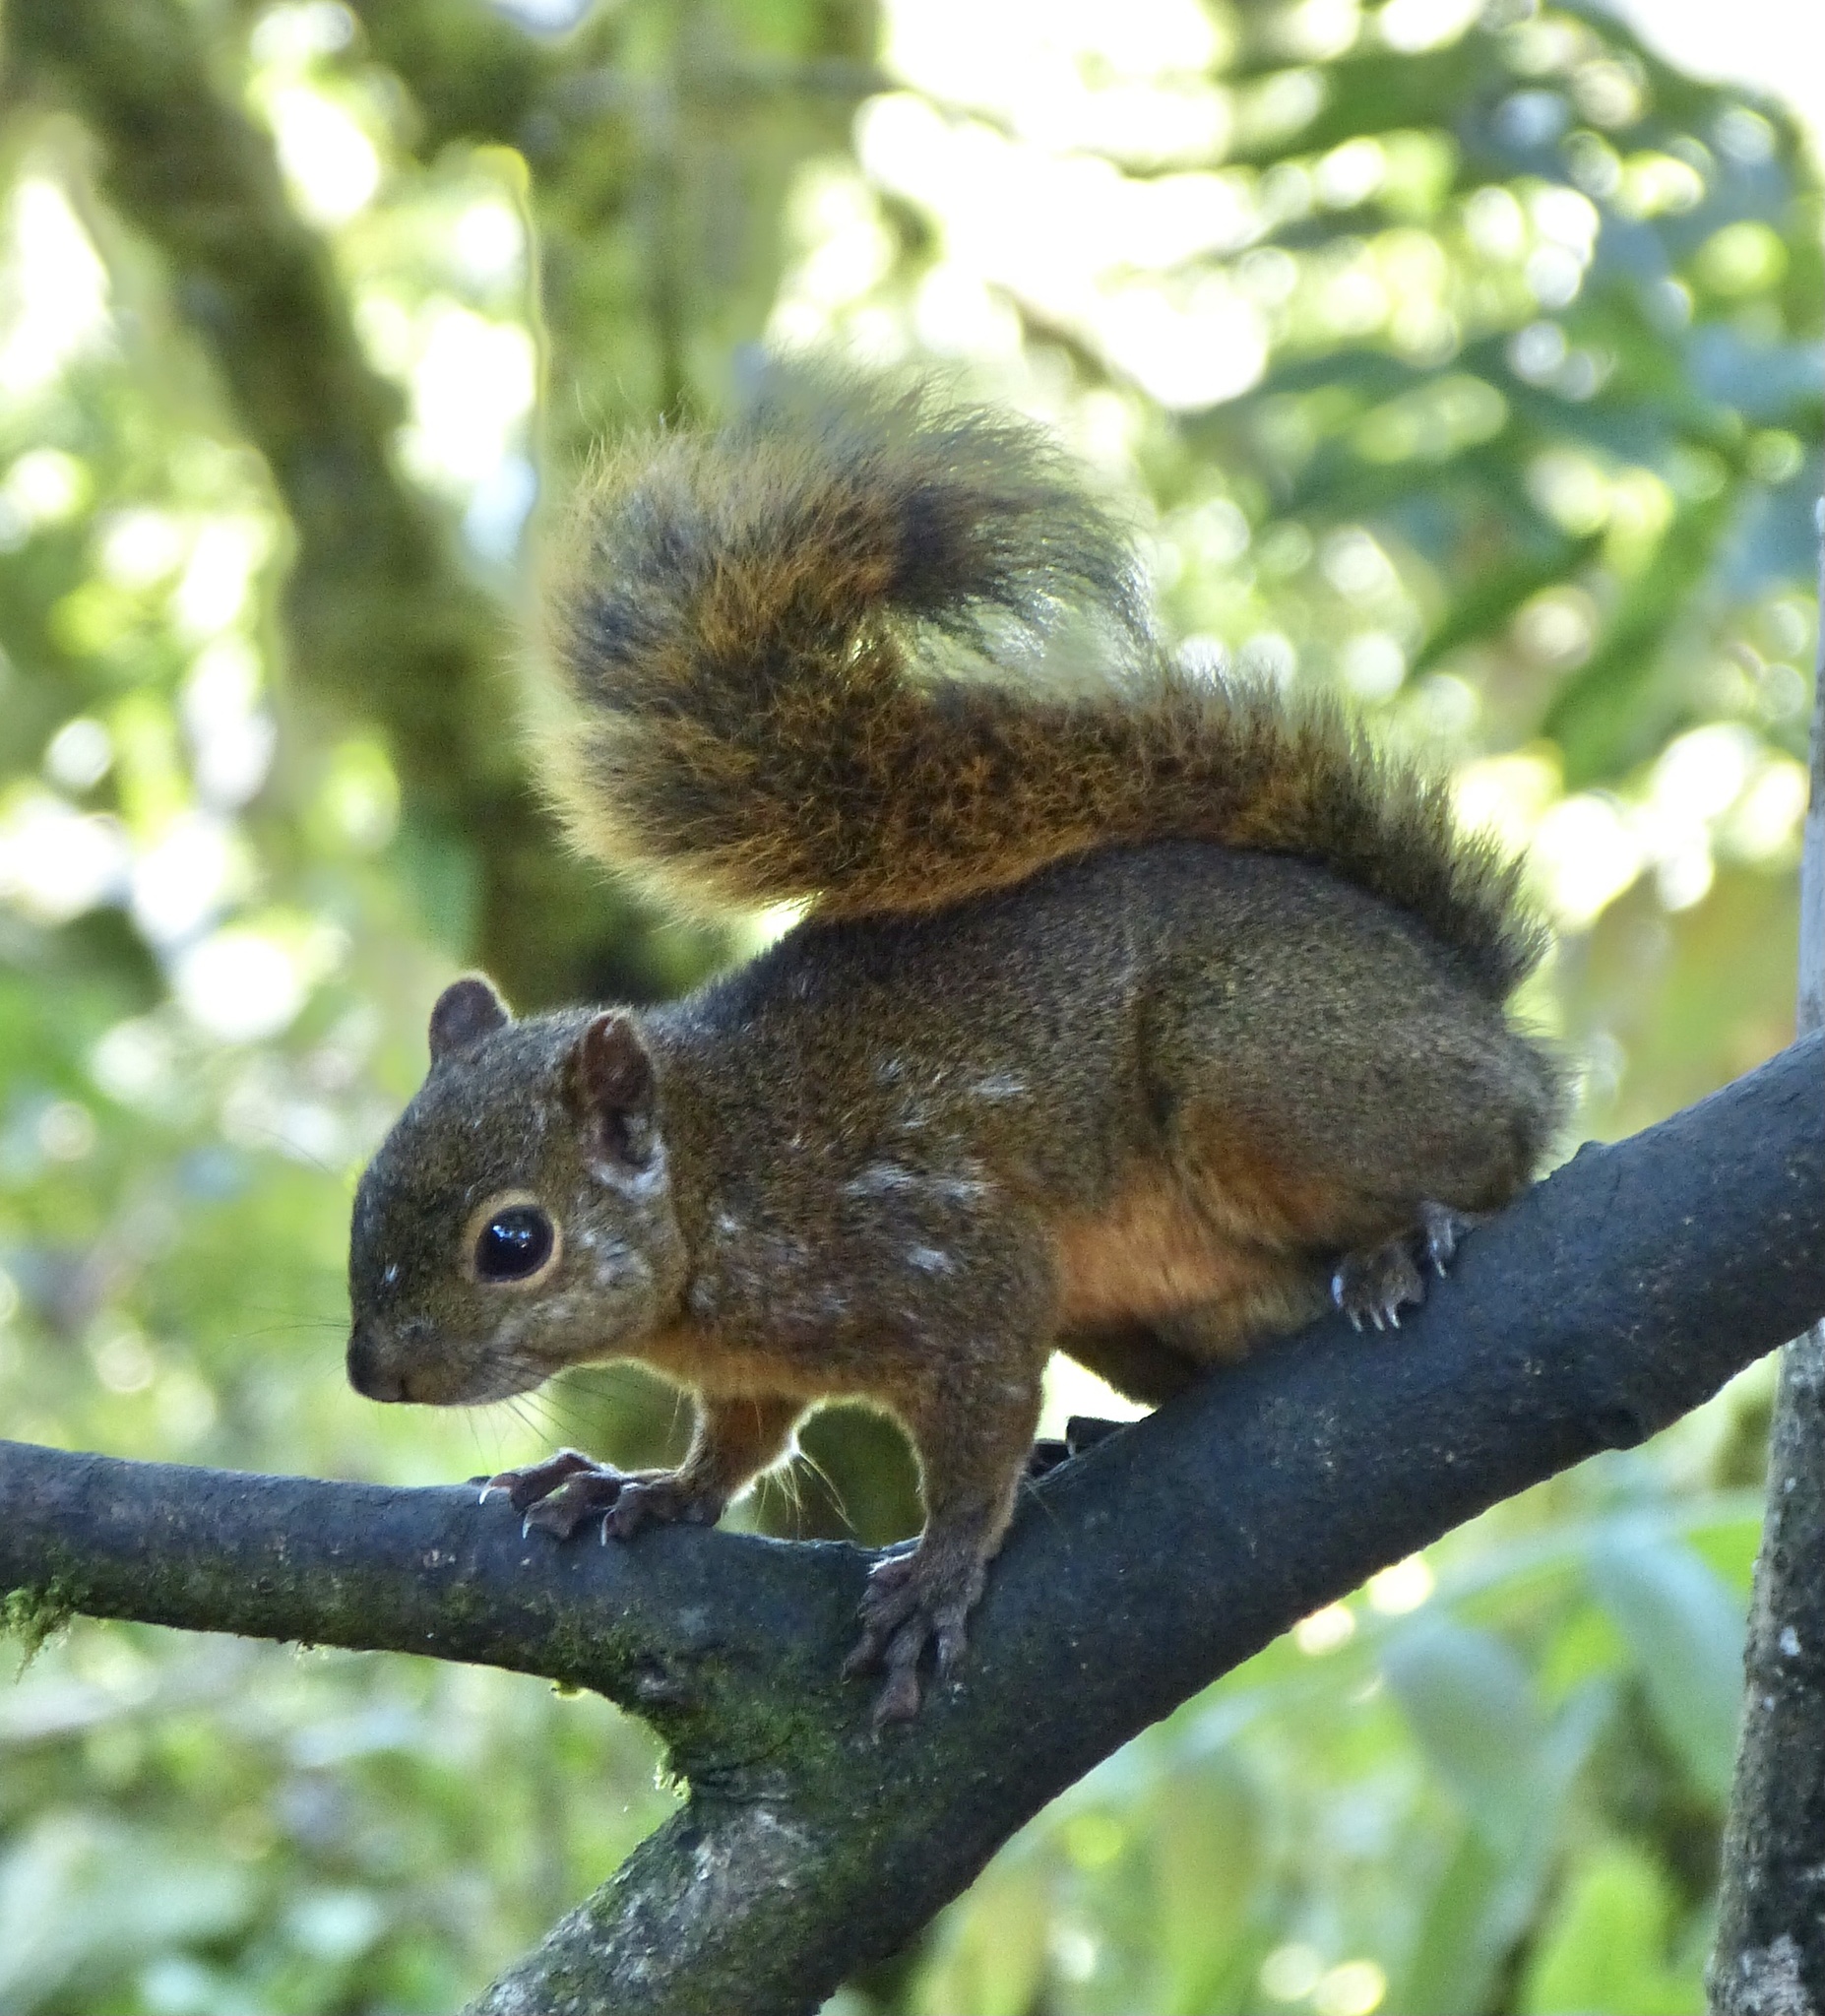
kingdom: Animalia
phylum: Chordata
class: Mammalia
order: Rodentia
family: Sciuridae
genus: Sciurus
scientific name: Sciurus granatensis
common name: Red-tailed squirrel
